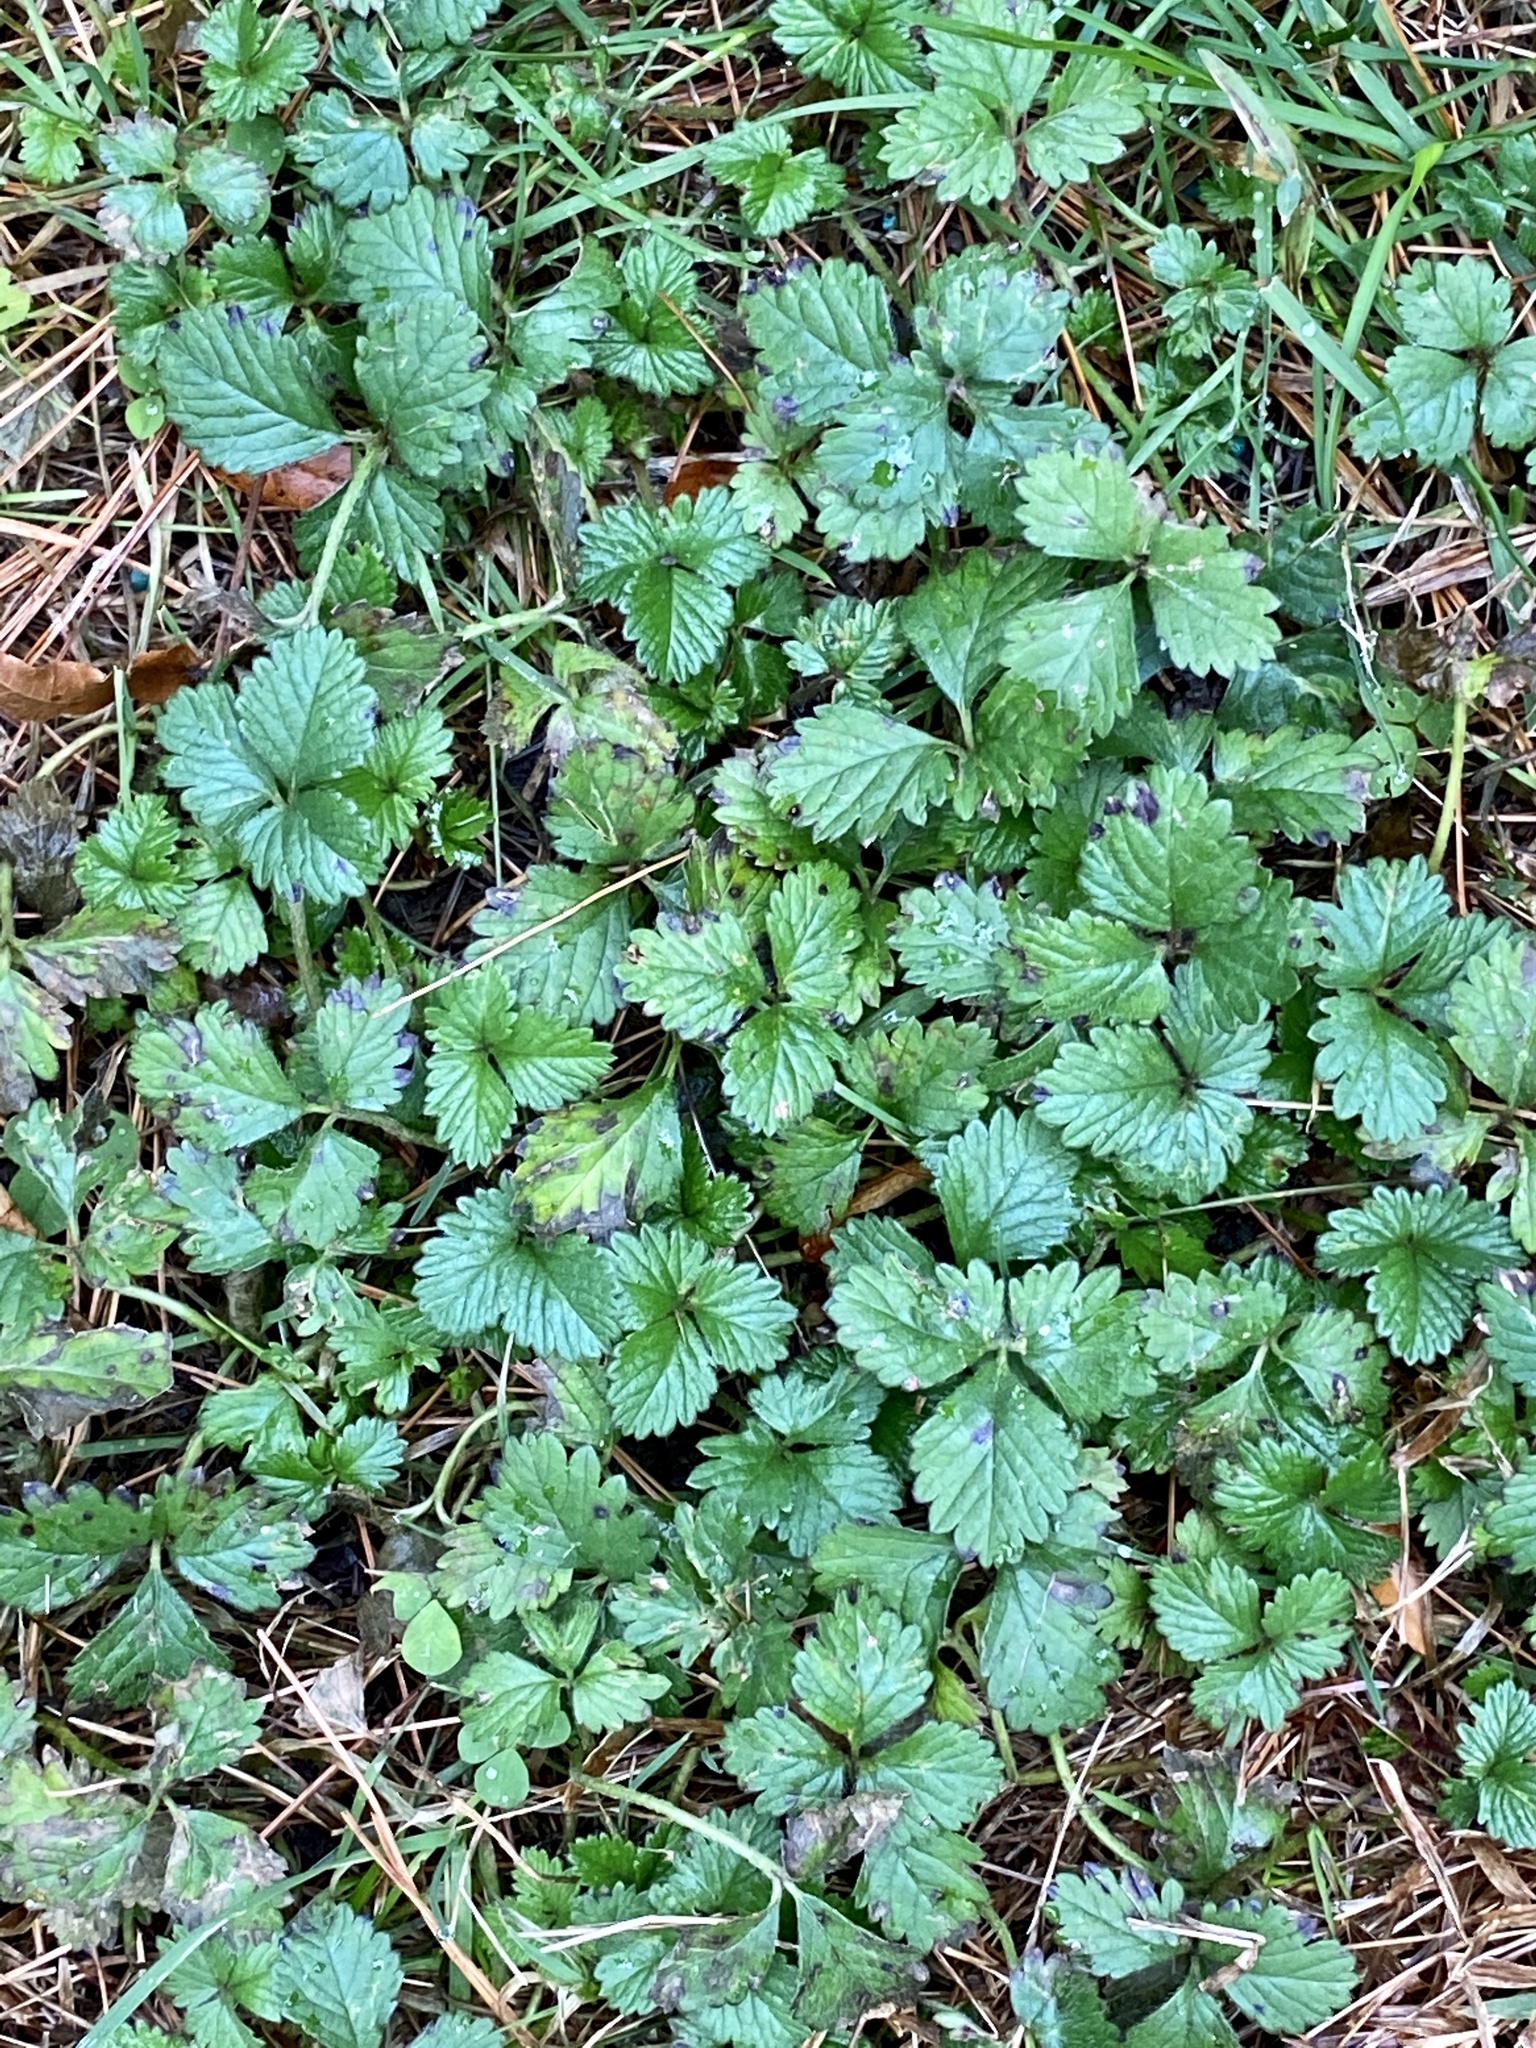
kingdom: Plantae
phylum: Tracheophyta
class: Magnoliopsida
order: Rosales
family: Rosaceae
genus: Potentilla
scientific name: Potentilla indica
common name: Yellow-flowered strawberry
